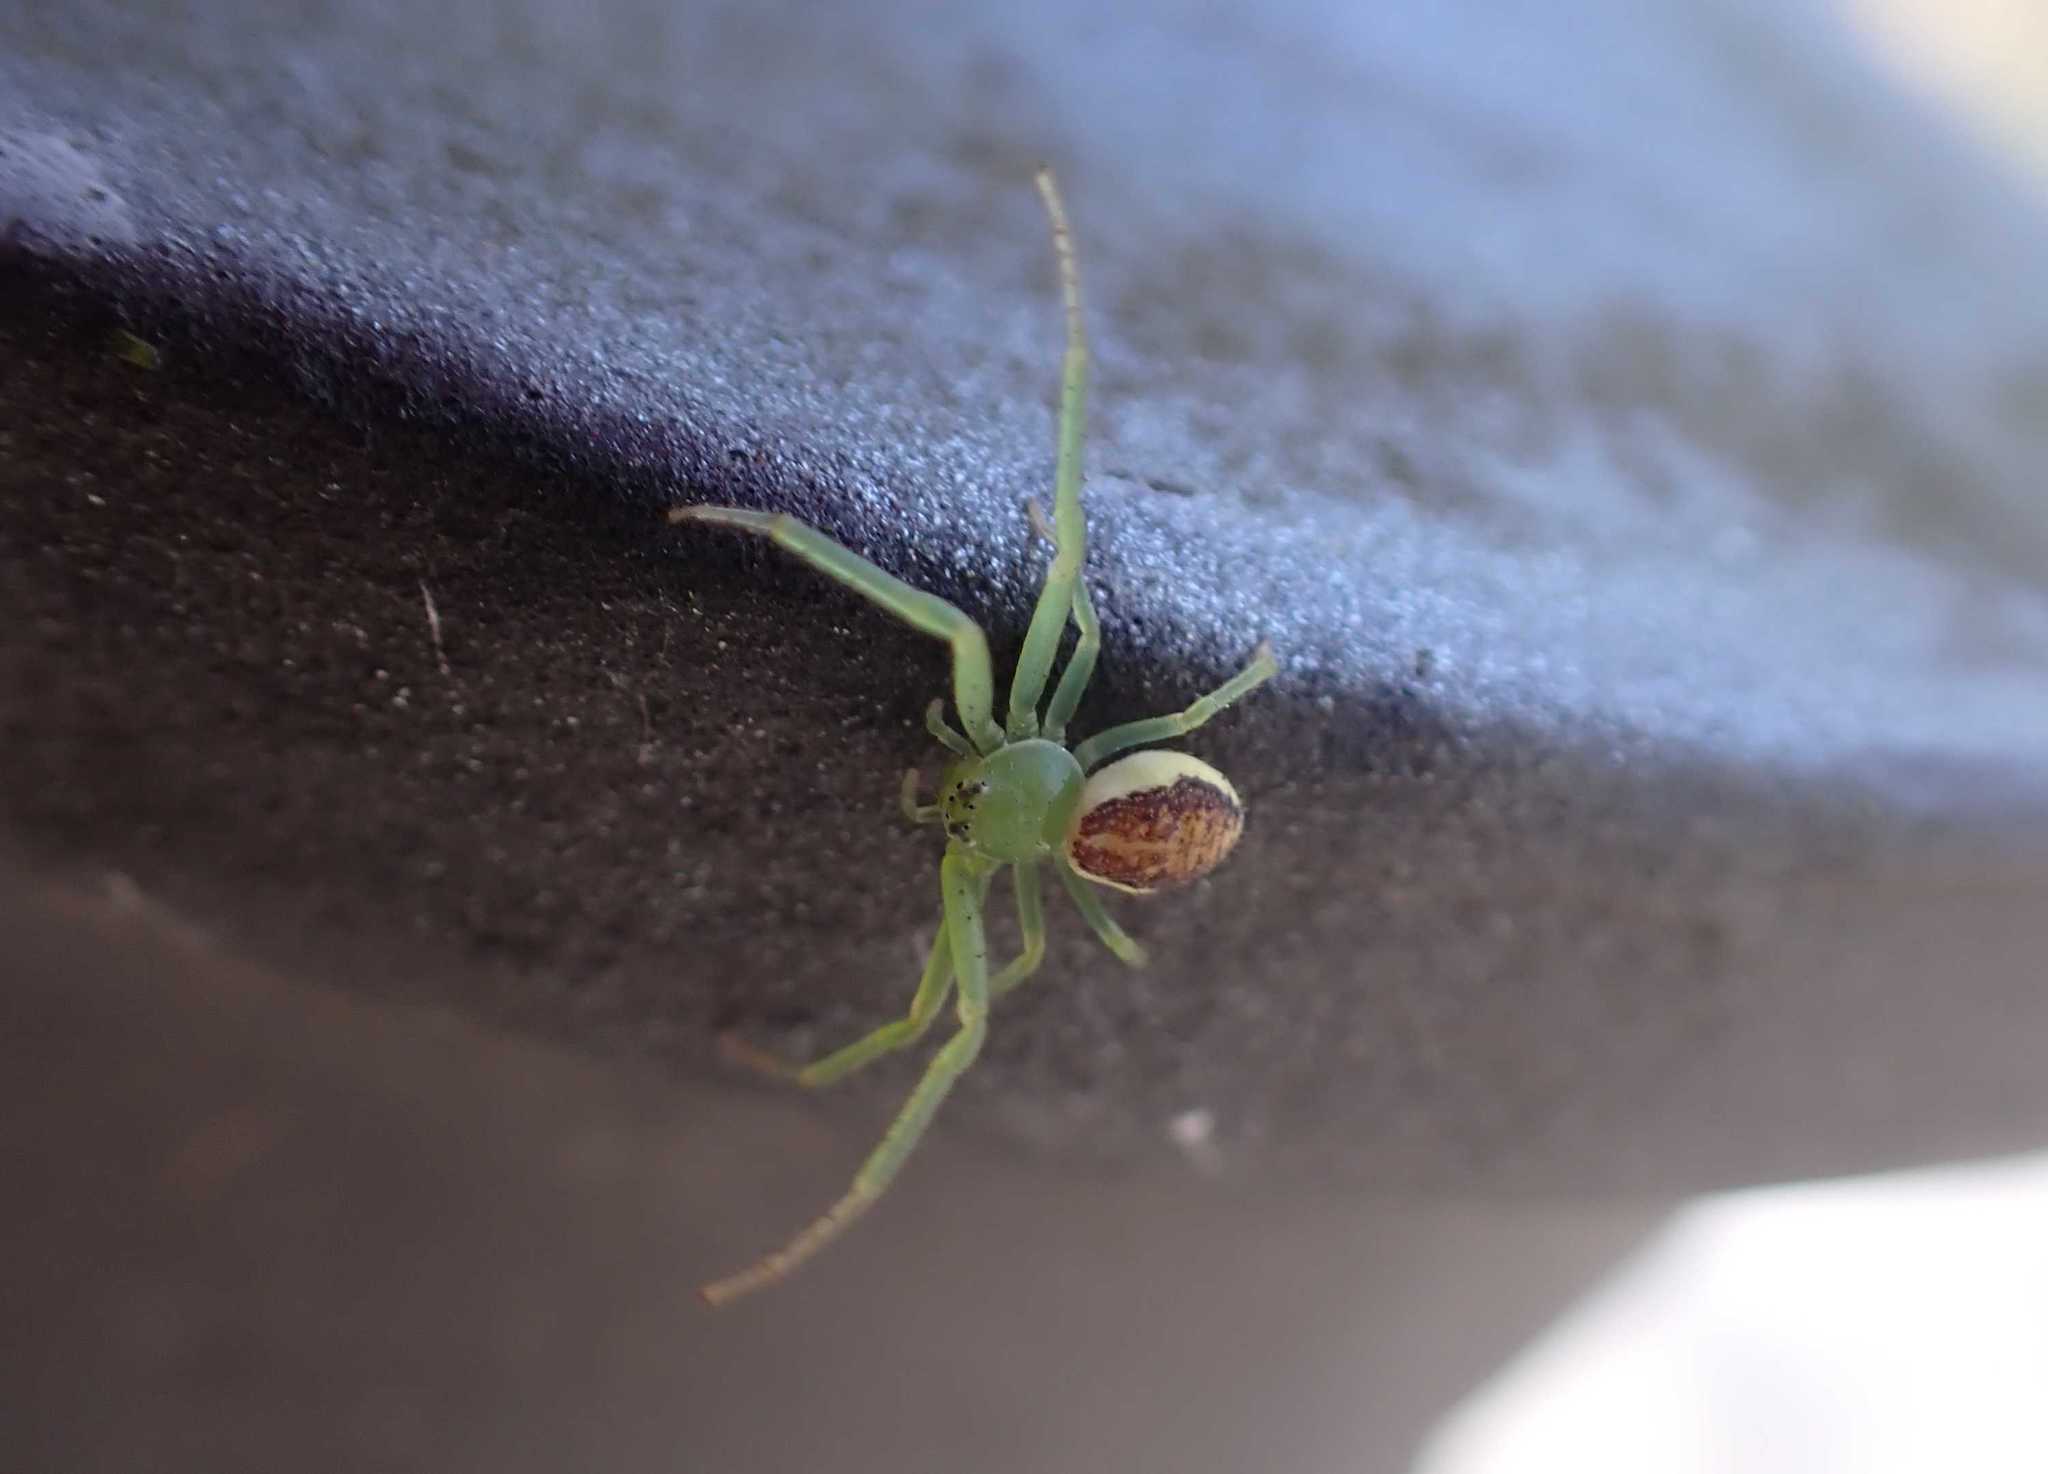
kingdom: Animalia
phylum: Arthropoda
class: Arachnida
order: Araneae
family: Thomisidae
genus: Diaea
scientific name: Diaea dorsata
